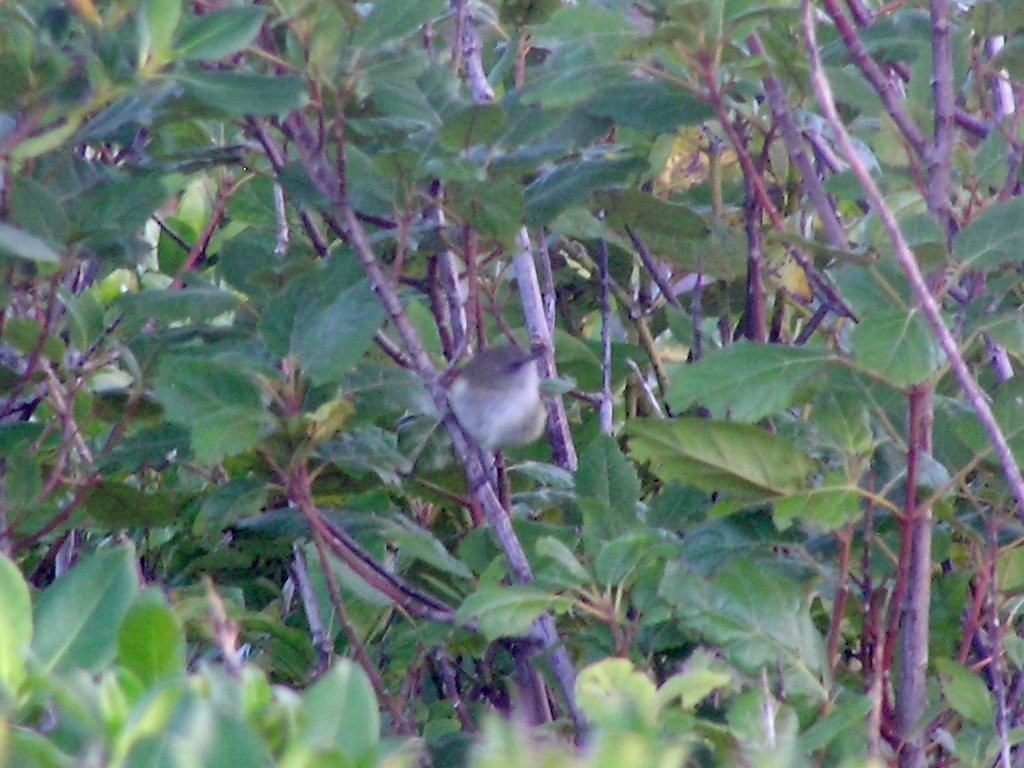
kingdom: Animalia
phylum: Chordata
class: Aves
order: Passeriformes
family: Acanthizidae
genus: Gerygone
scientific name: Gerygone igata
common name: Grey gerygone
